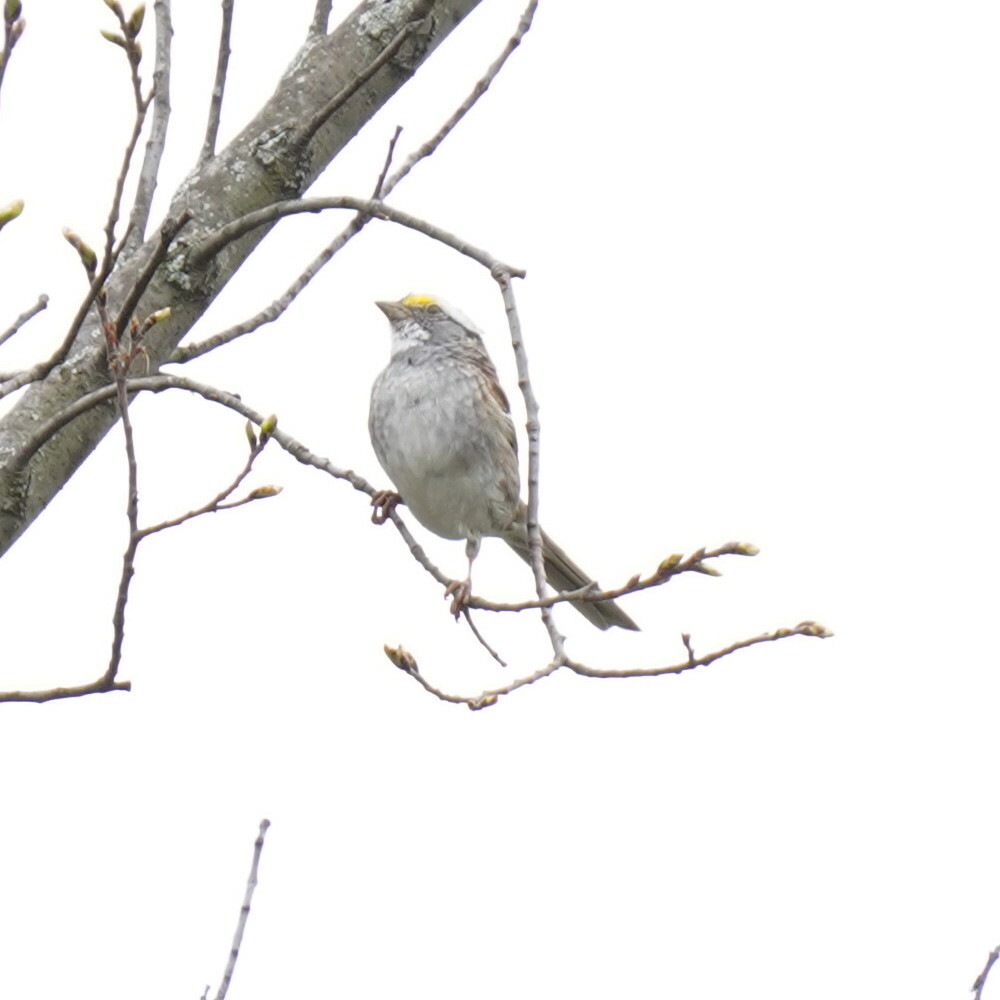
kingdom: Animalia
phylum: Chordata
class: Aves
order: Passeriformes
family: Passerellidae
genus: Zonotrichia
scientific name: Zonotrichia albicollis
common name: White-throated sparrow
